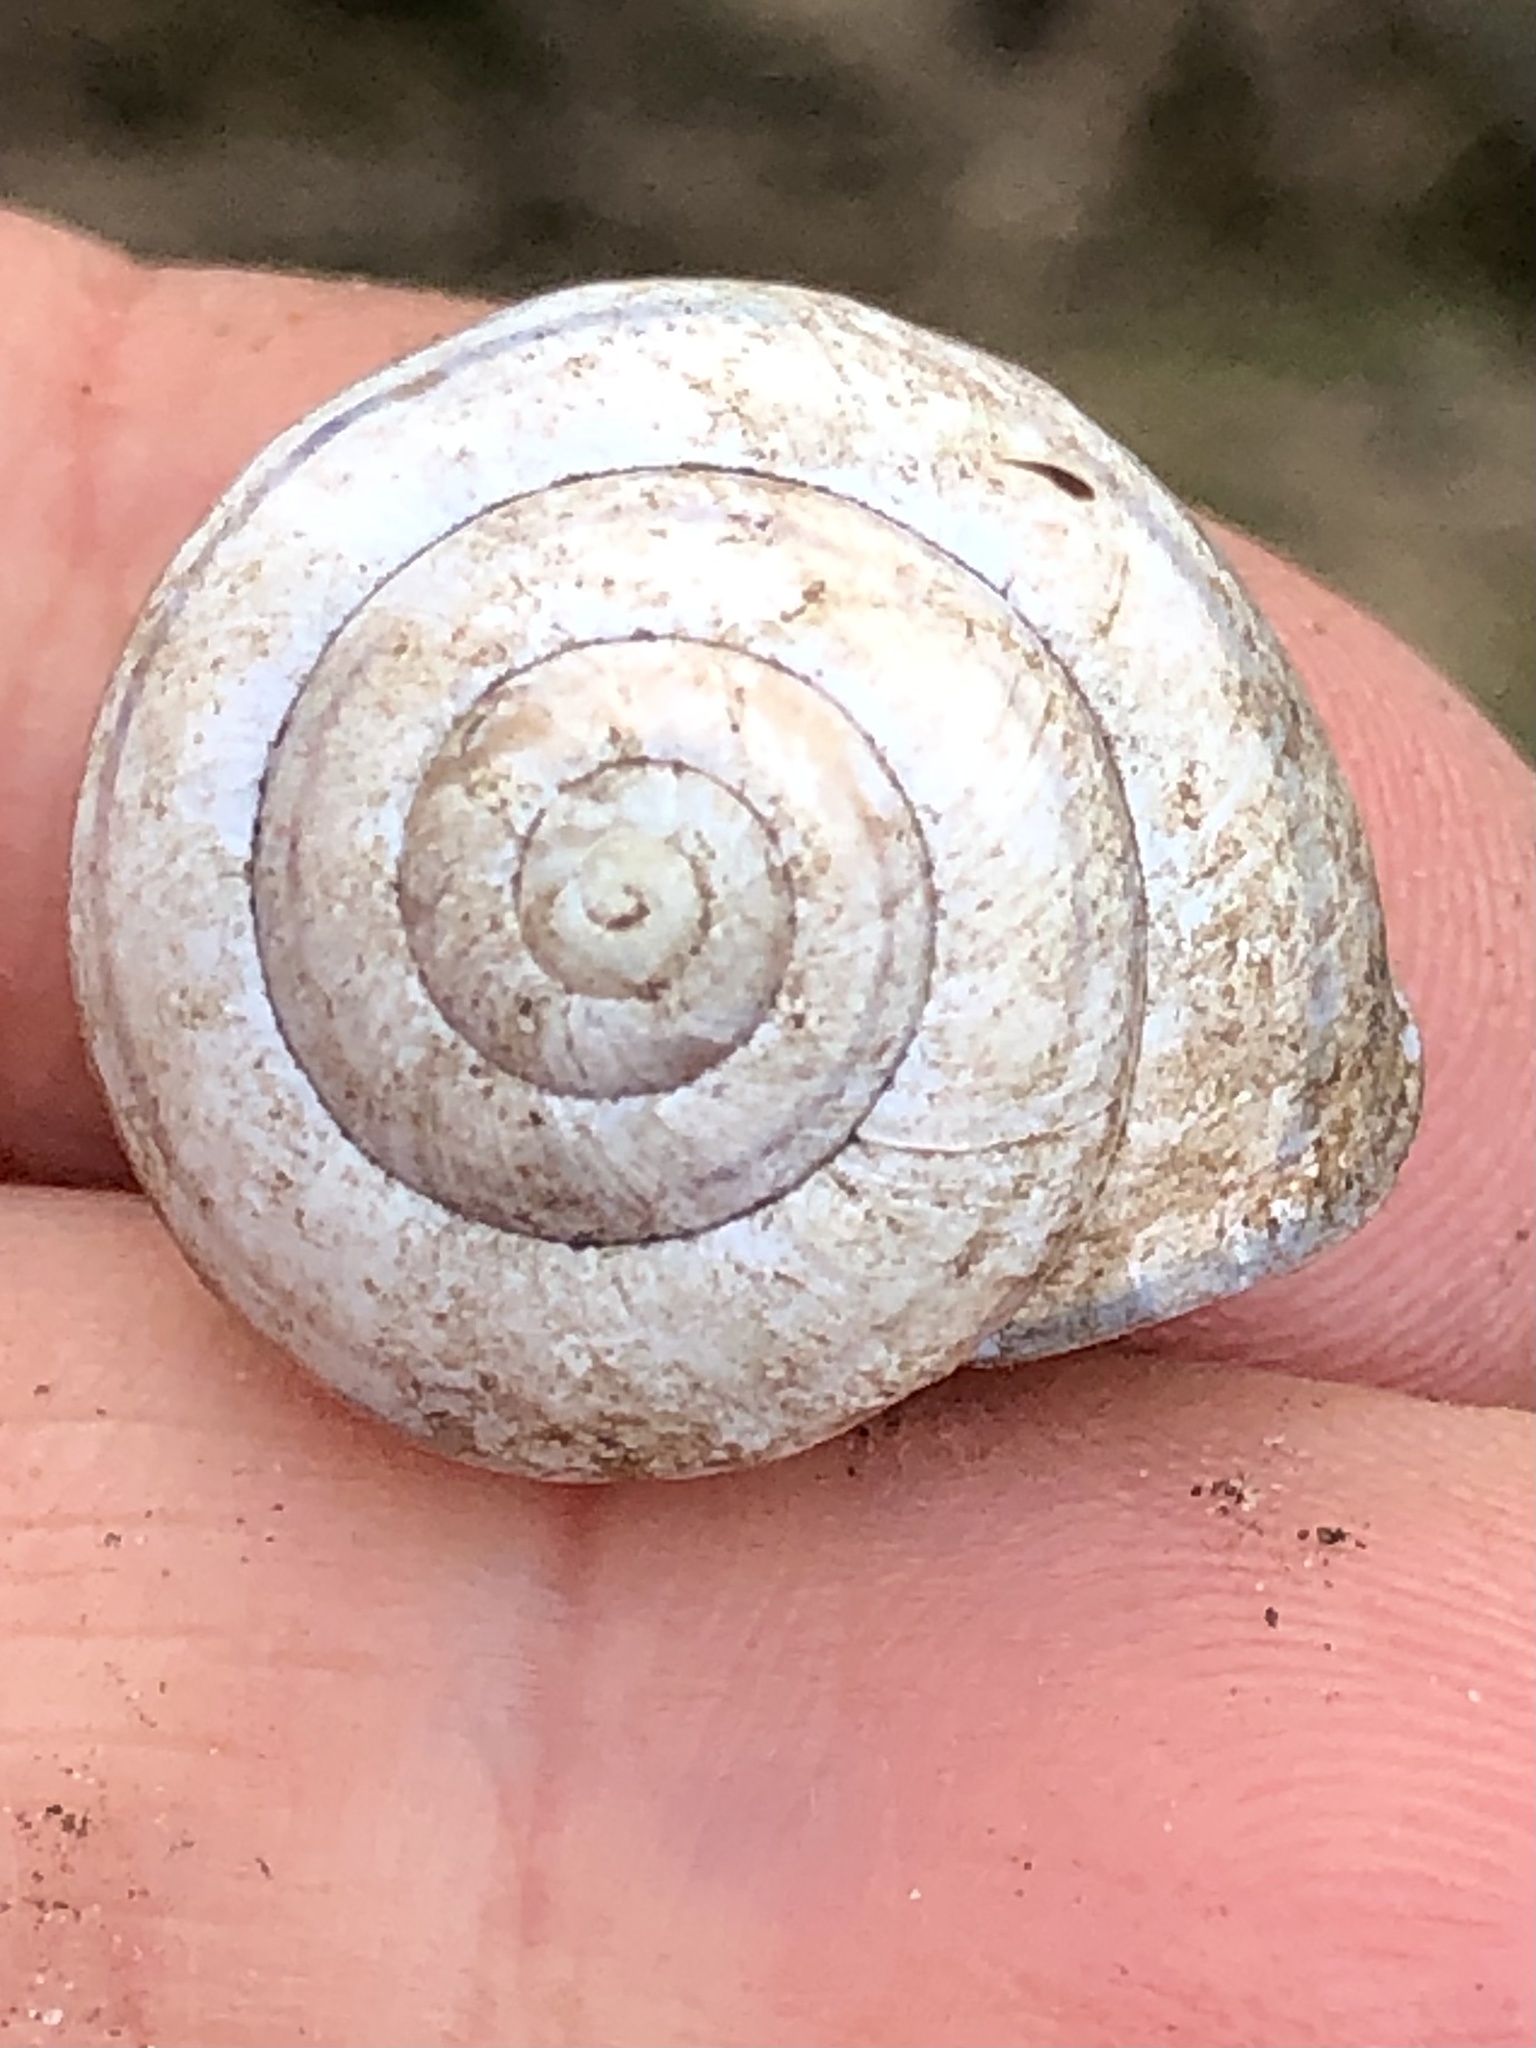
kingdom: Animalia
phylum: Mollusca
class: Gastropoda
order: Stylommatophora
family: Helicidae
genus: Cepaea
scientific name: Cepaea nemoralis
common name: Grovesnail
